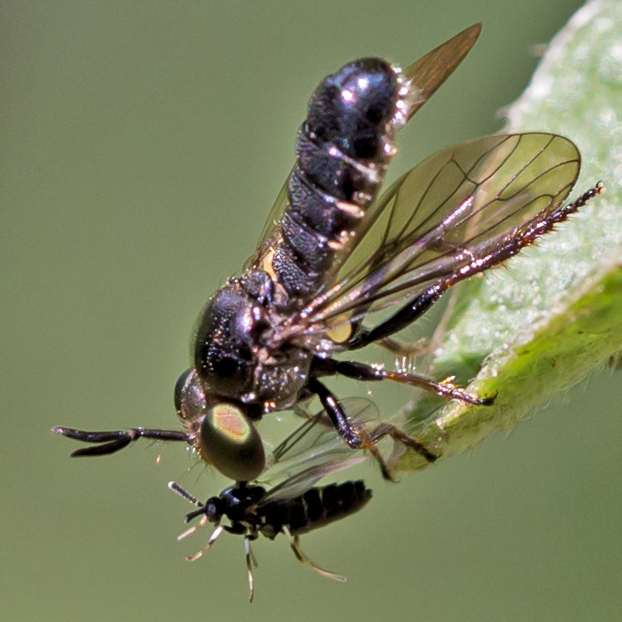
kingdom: Animalia
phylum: Arthropoda
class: Insecta
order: Diptera
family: Asilidae
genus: Cerotainia
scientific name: Cerotainia
